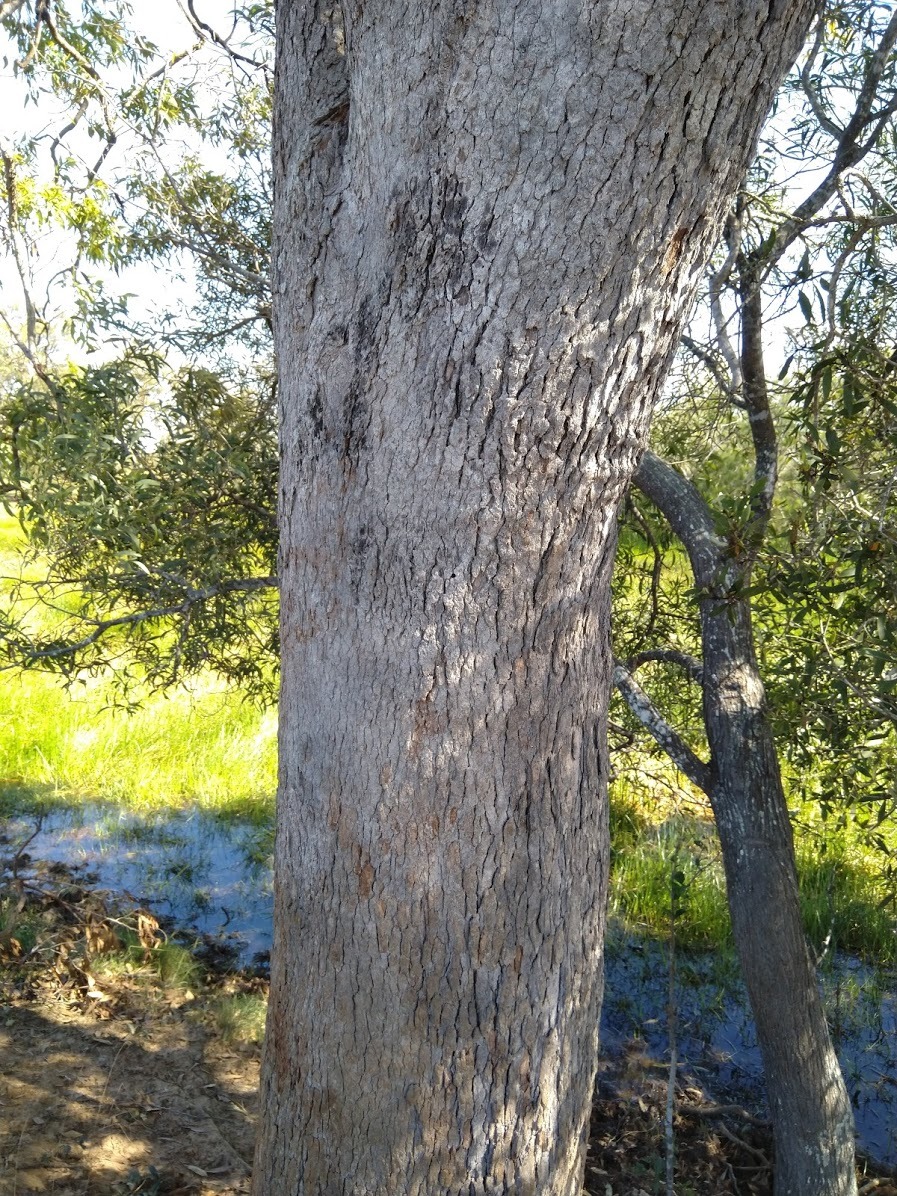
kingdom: Plantae
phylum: Tracheophyta
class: Magnoliopsida
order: Myrtales
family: Myrtaceae
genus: Corymbia
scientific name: Corymbia intermedia
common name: Pink-bloodwood
